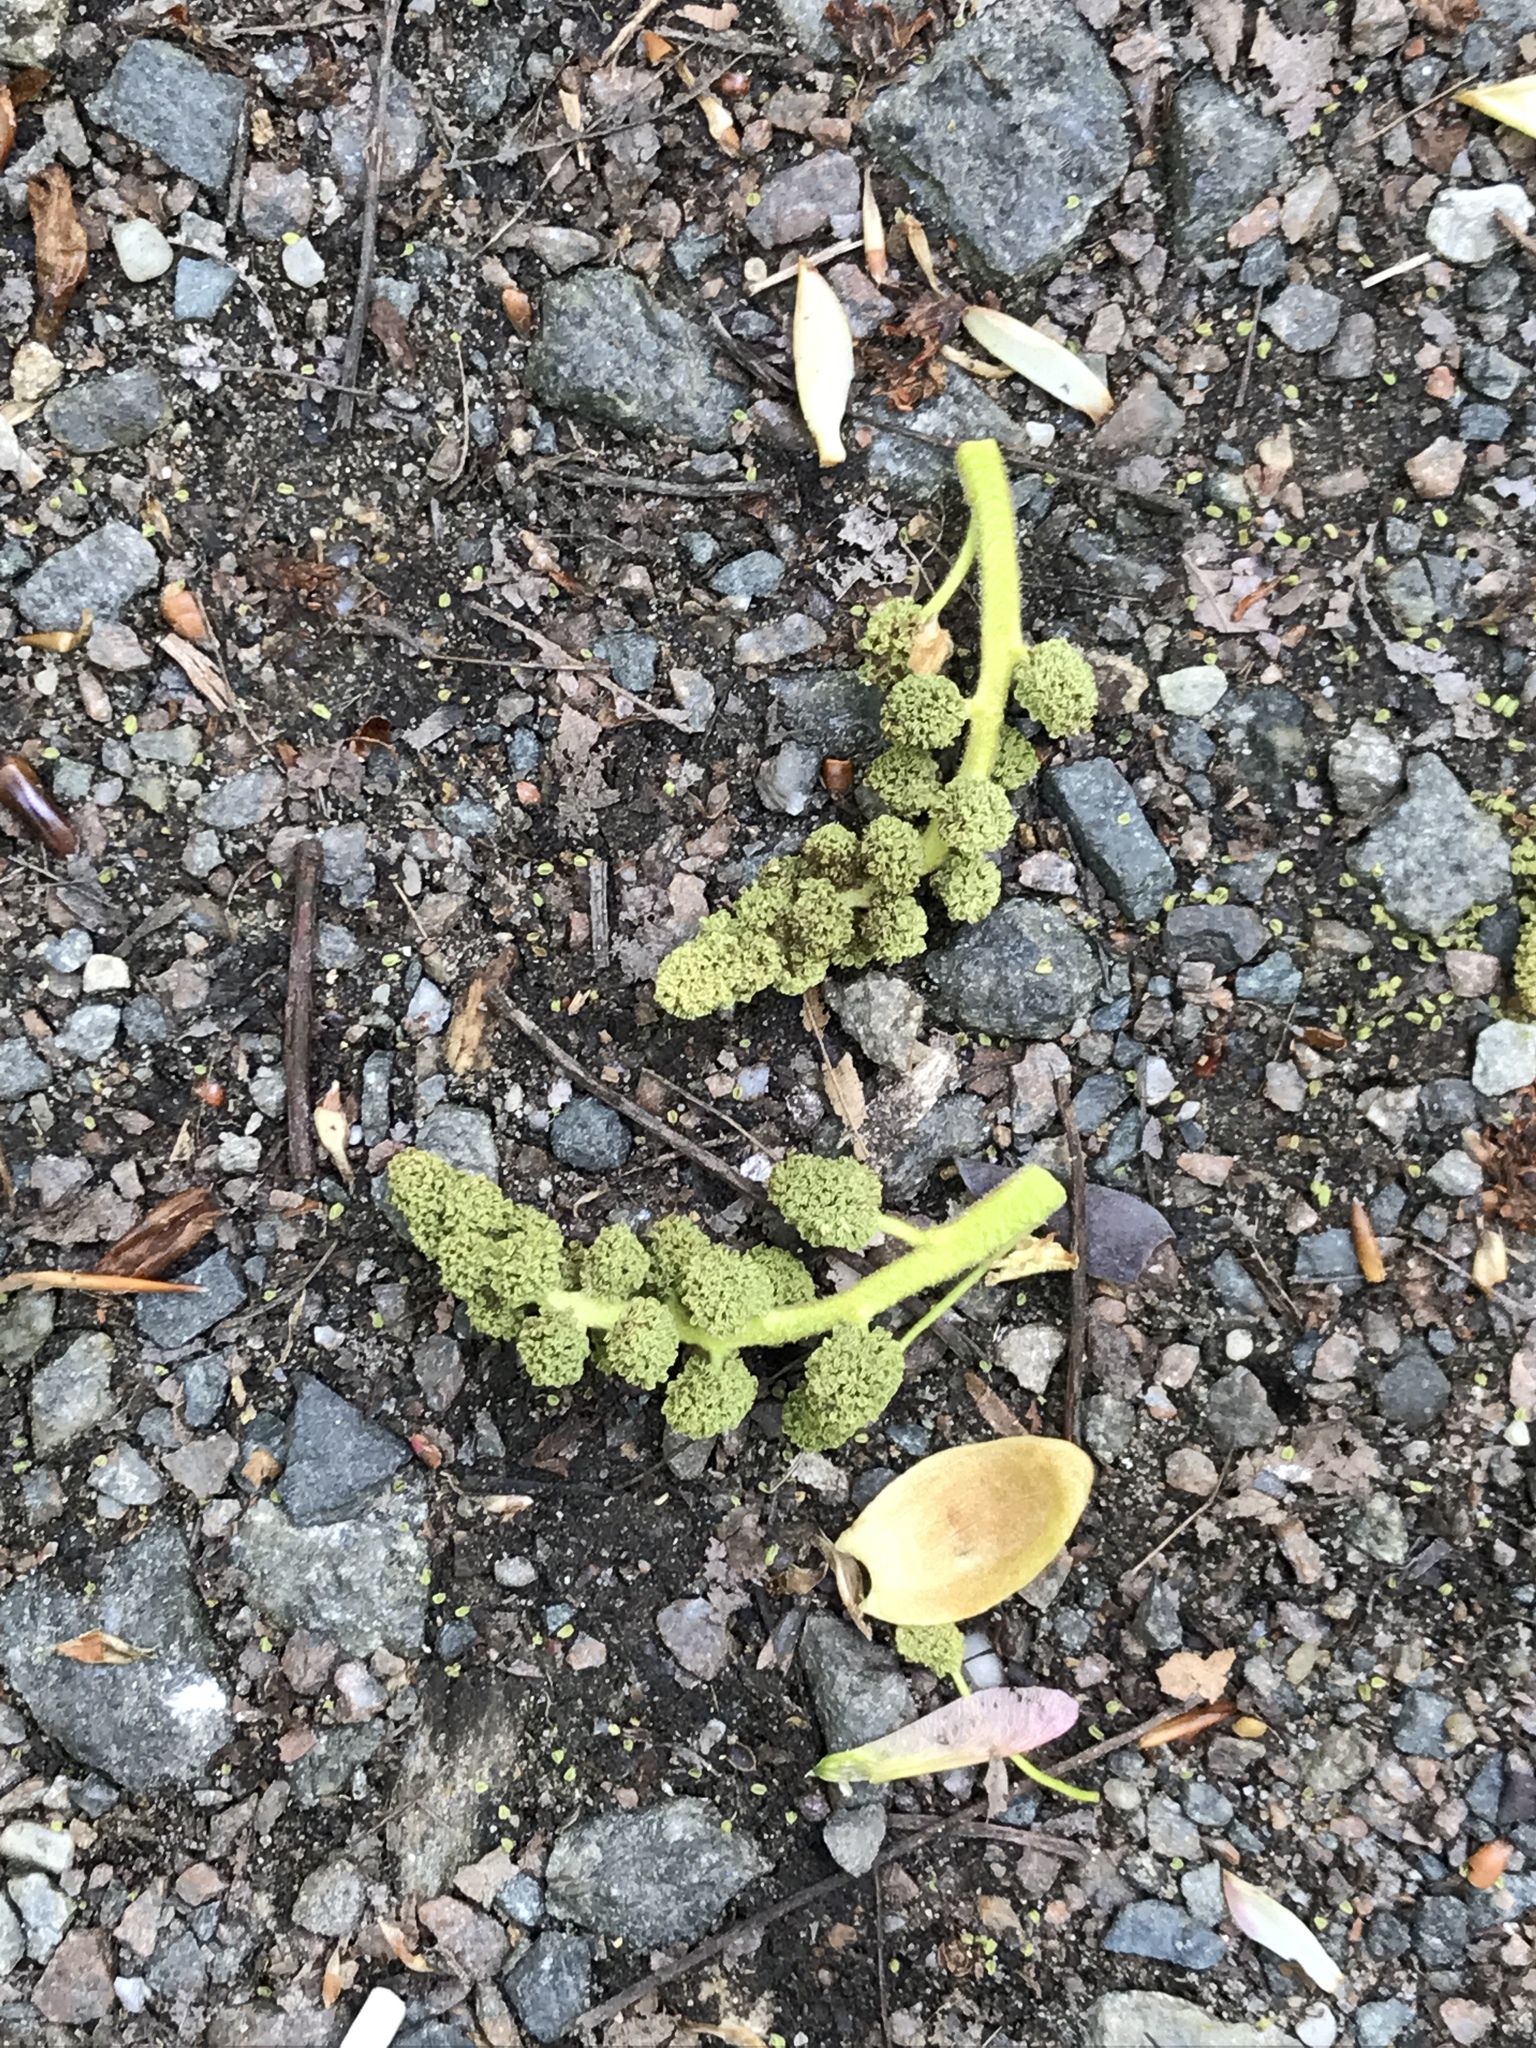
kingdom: Plantae
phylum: Tracheophyta
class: Magnoliopsida
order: Saxifragales
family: Altingiaceae
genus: Liquidambar
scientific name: Liquidambar styraciflua
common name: Sweet gum
